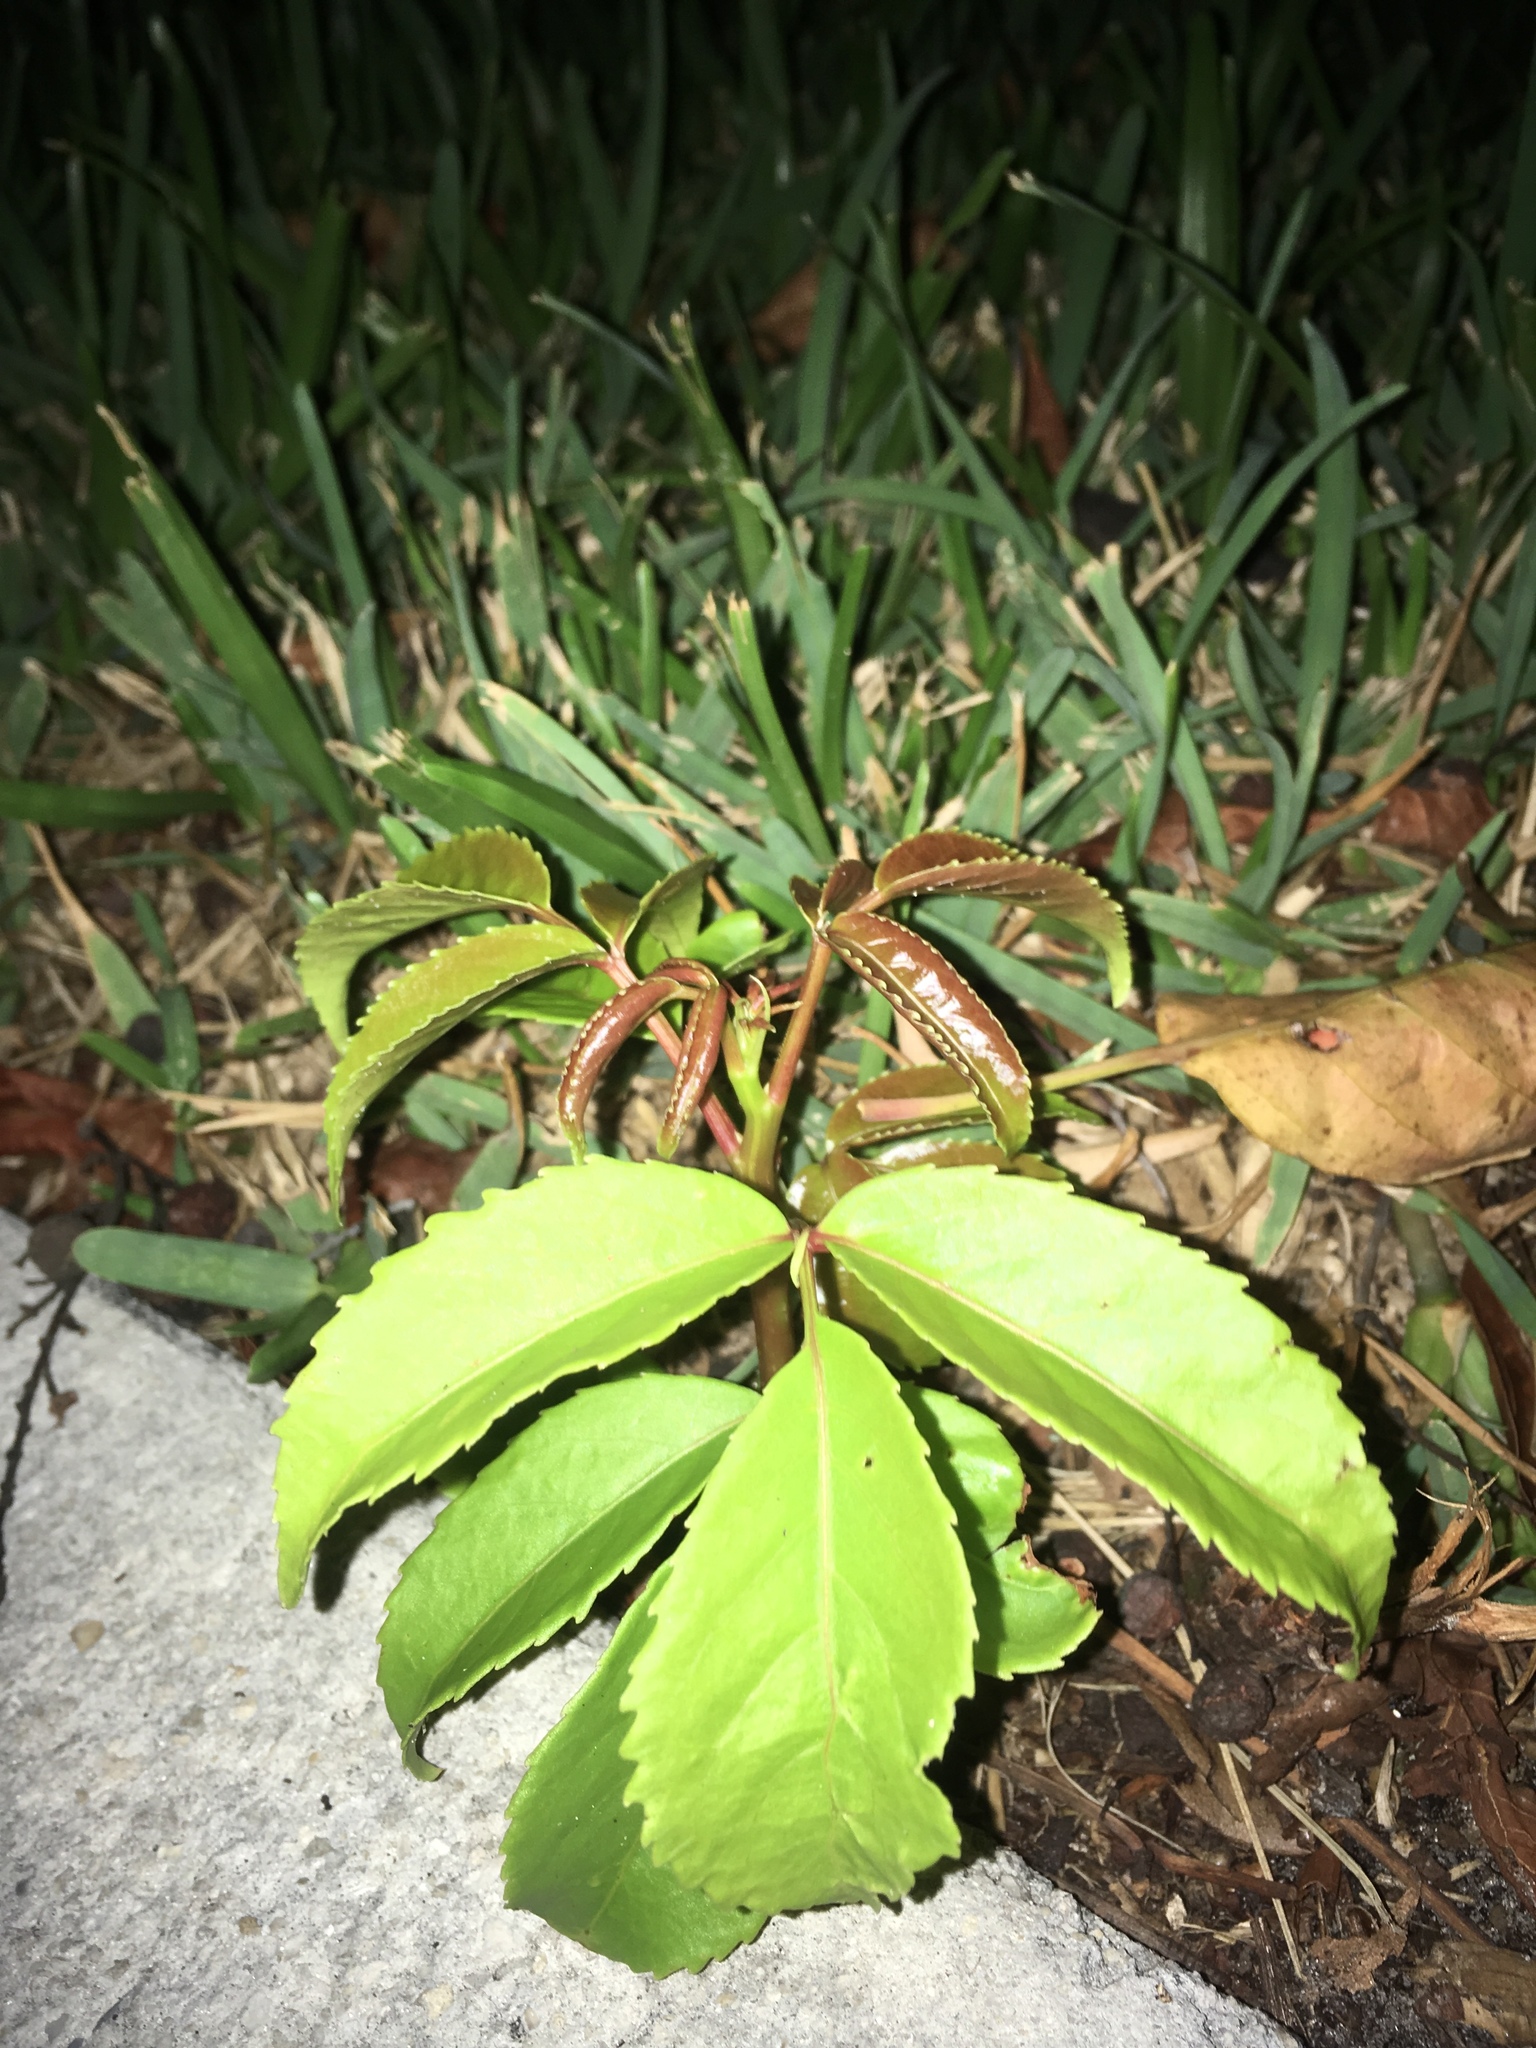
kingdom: Plantae
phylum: Tracheophyta
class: Magnoliopsida
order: Malpighiales
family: Phyllanthaceae
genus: Bischofia
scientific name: Bischofia javanica
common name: Javanese bishopwood
